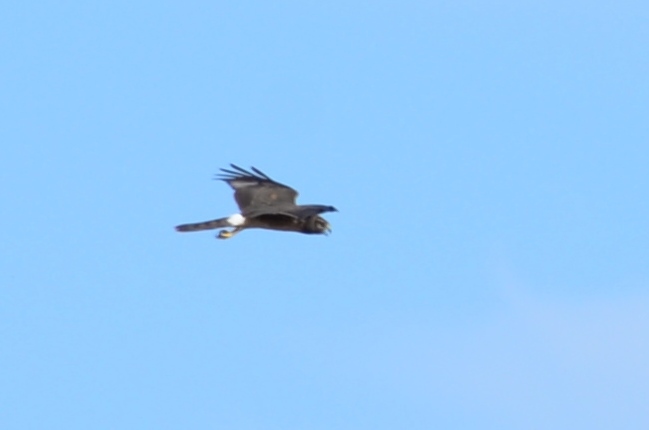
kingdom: Animalia
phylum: Chordata
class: Aves
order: Accipitriformes
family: Accipitridae
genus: Circus
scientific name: Circus cyaneus
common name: Hen harrier
